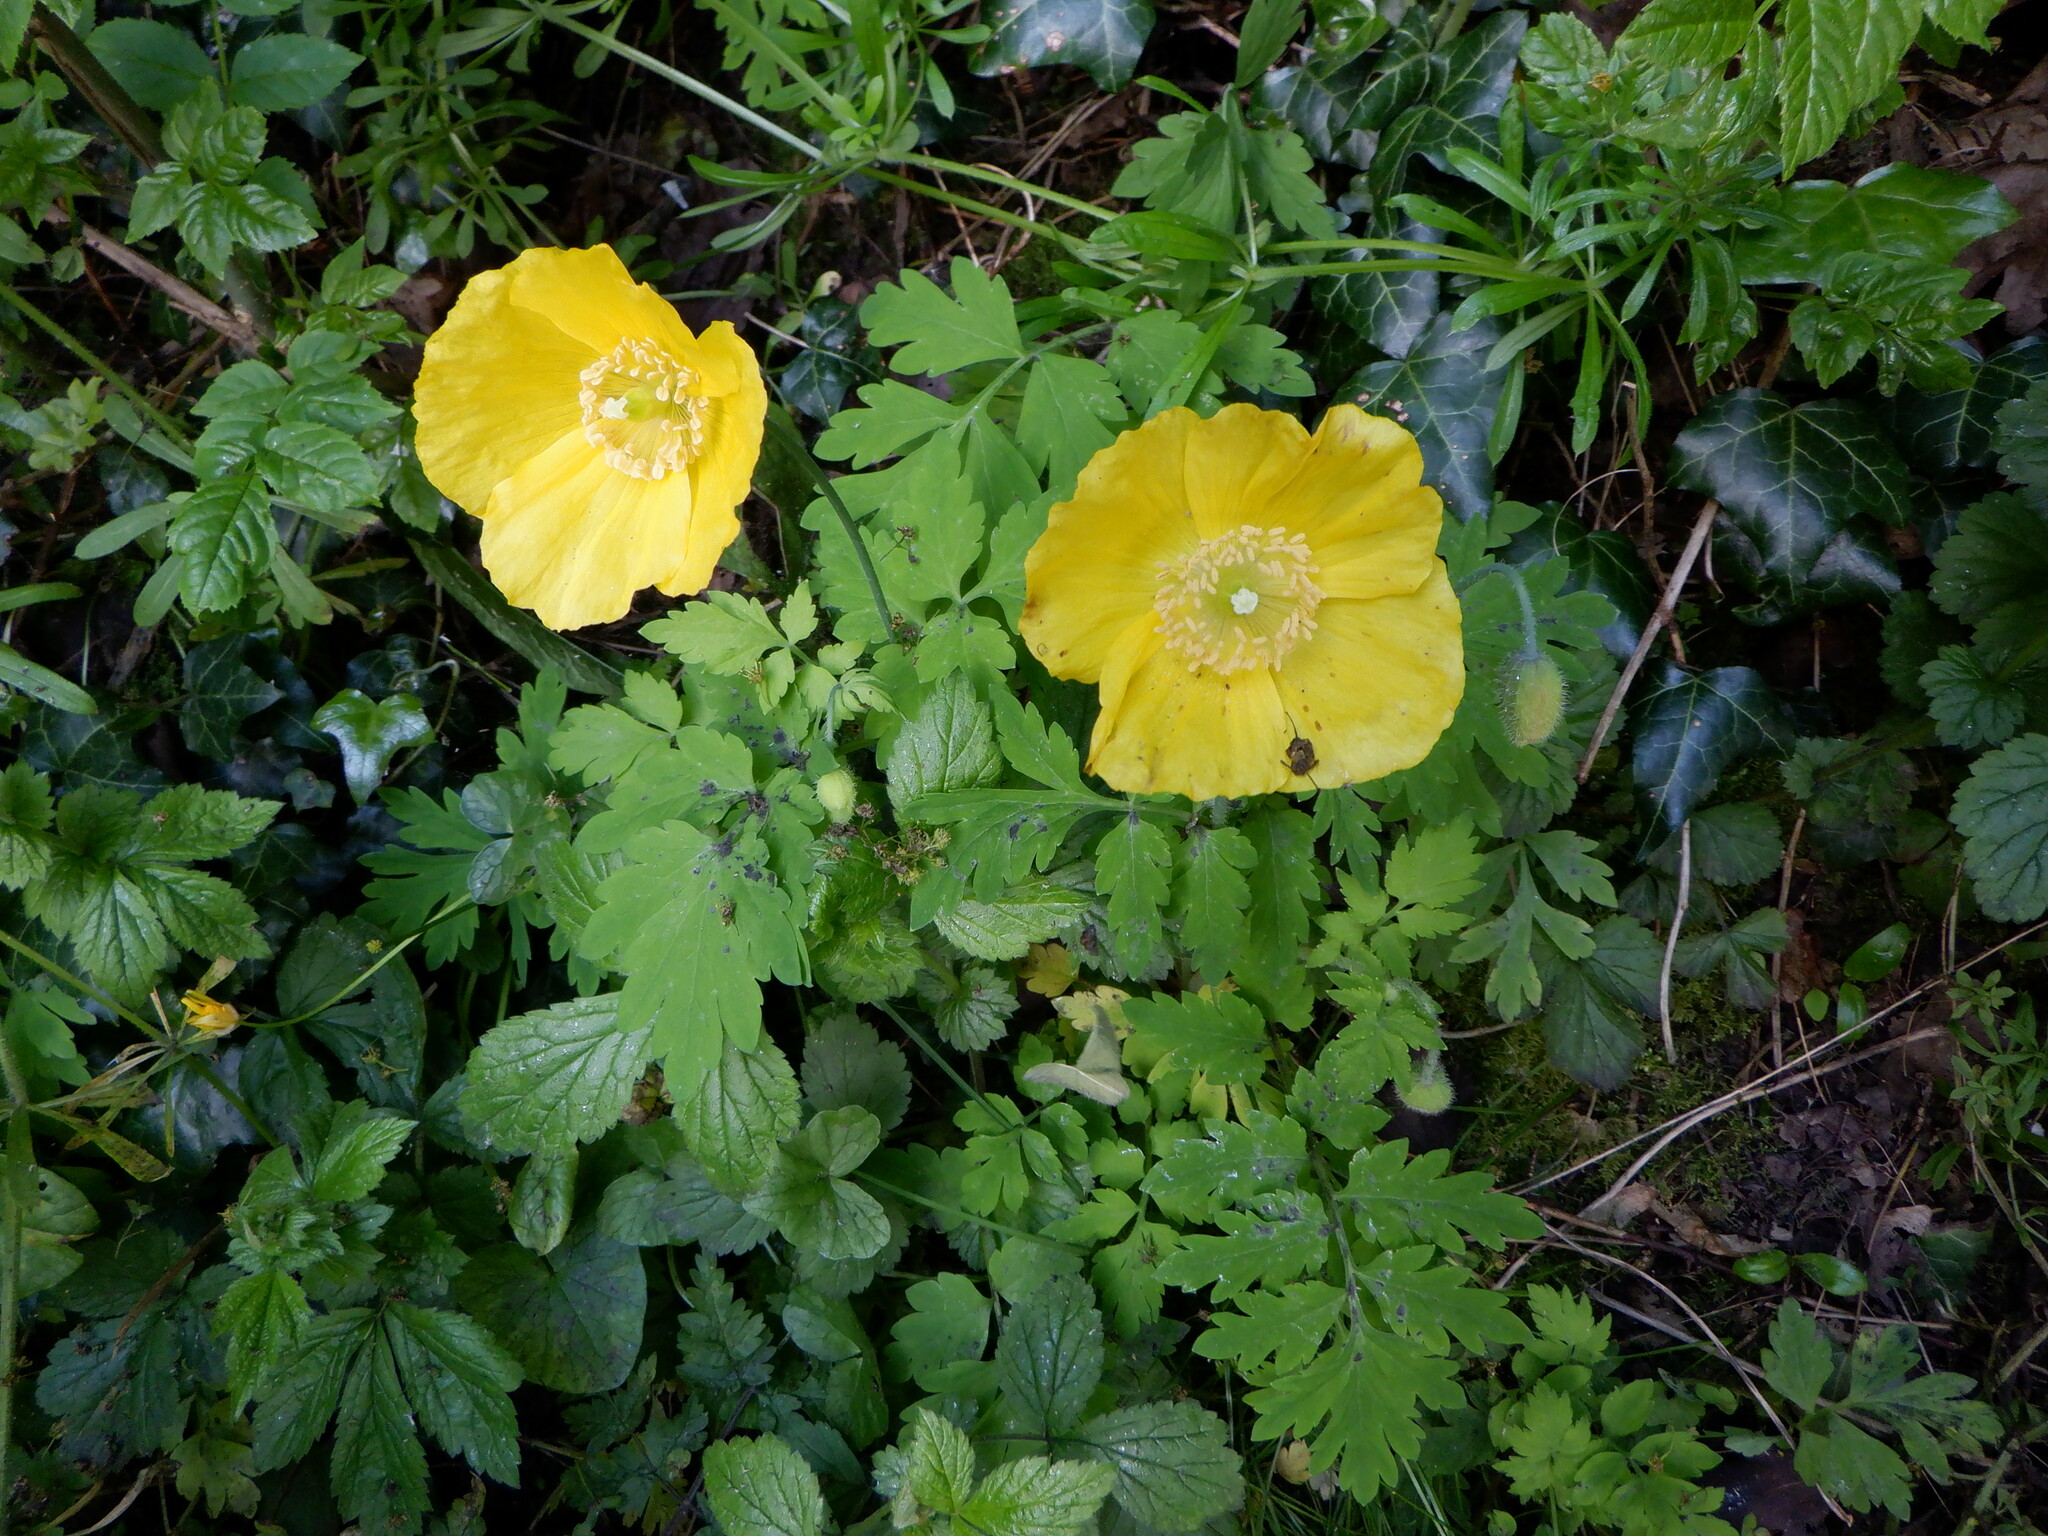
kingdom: Plantae
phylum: Tracheophyta
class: Magnoliopsida
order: Ranunculales
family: Papaveraceae
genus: Papaver
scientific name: Papaver cambricum
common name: Poppy
